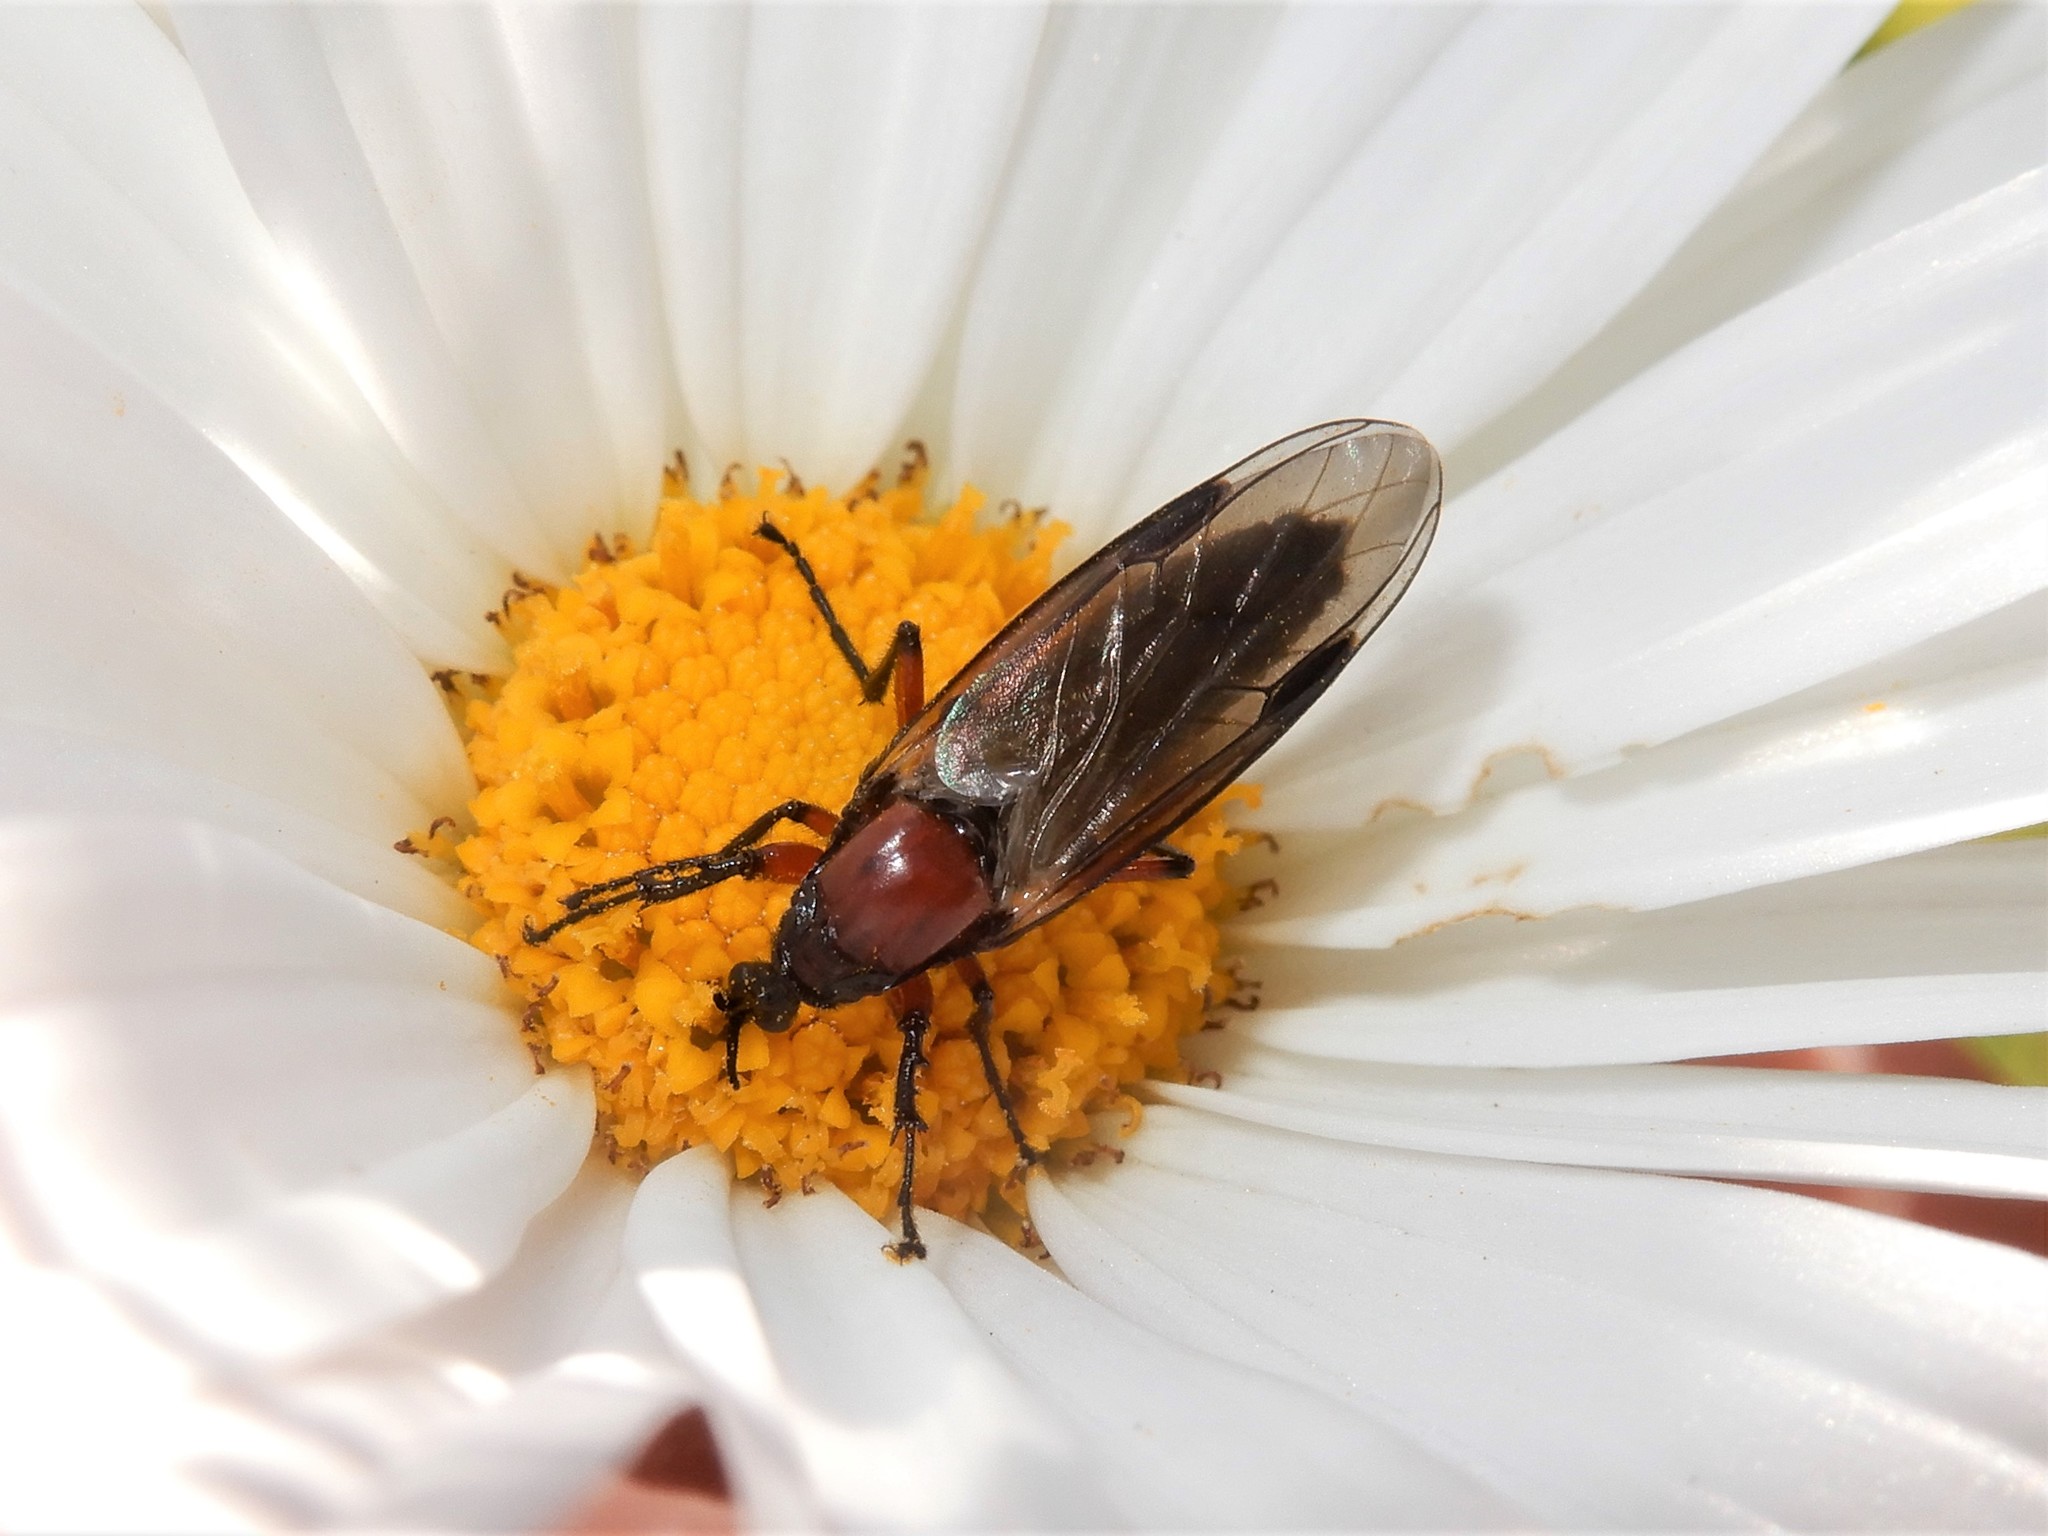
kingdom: Animalia
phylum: Arthropoda
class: Insecta
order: Diptera
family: Bibionidae
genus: Dilophus
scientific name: Dilophus nigrostigma
